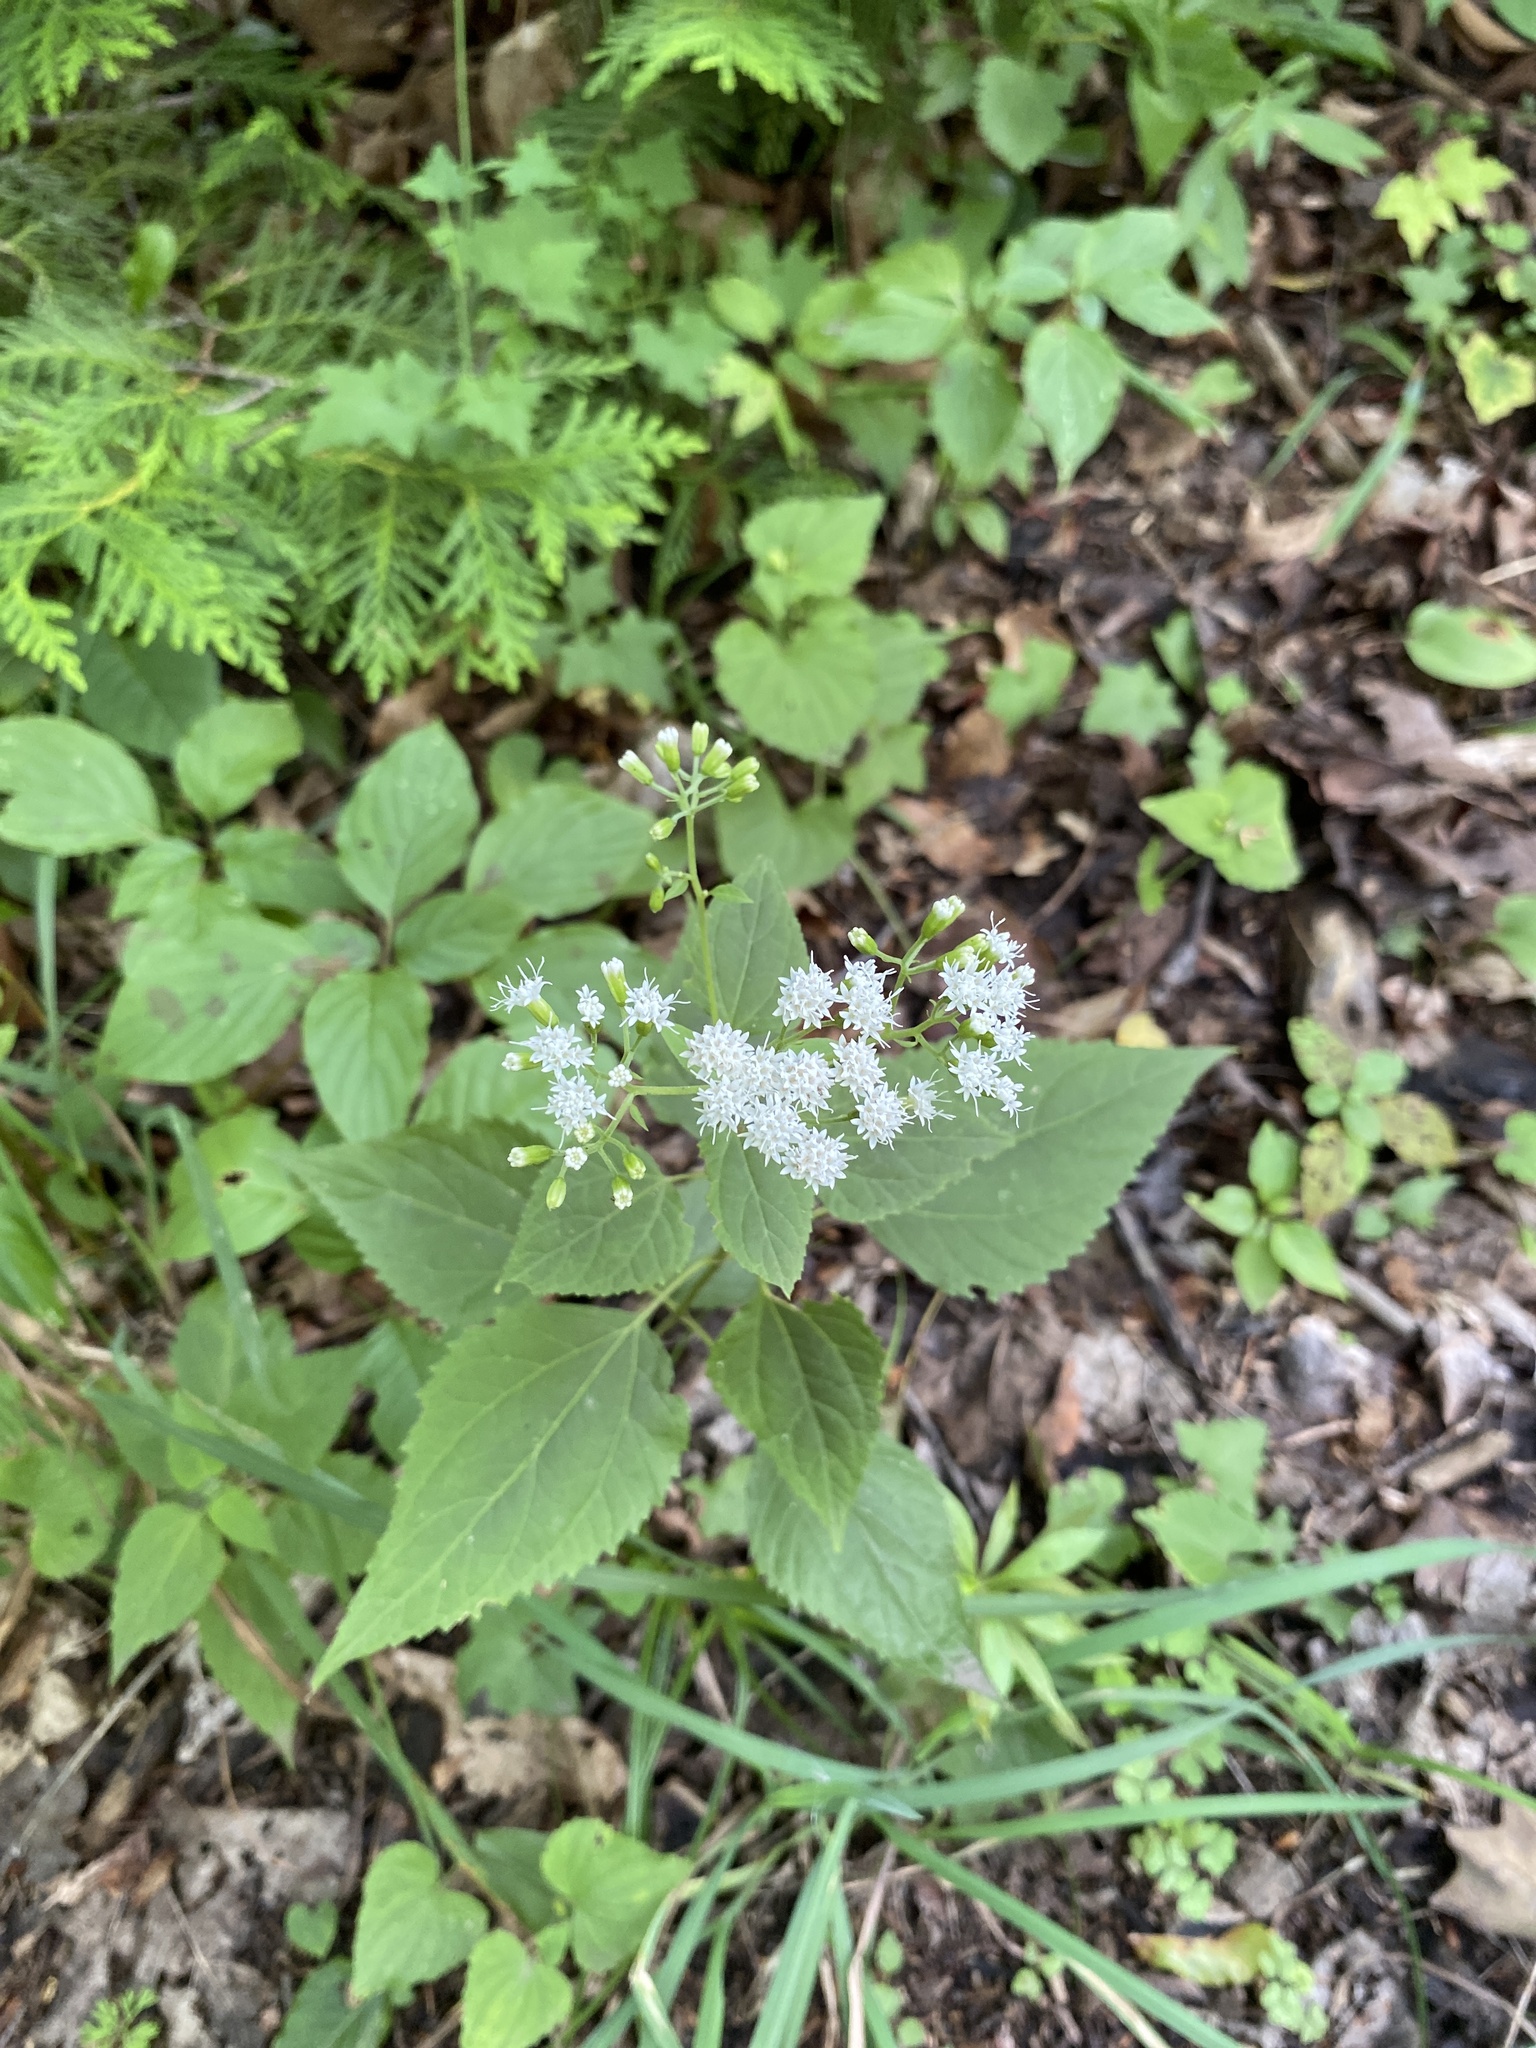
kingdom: Plantae
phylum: Tracheophyta
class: Magnoliopsida
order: Asterales
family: Asteraceae
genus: Ageratina
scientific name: Ageratina altissima
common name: White snakeroot
